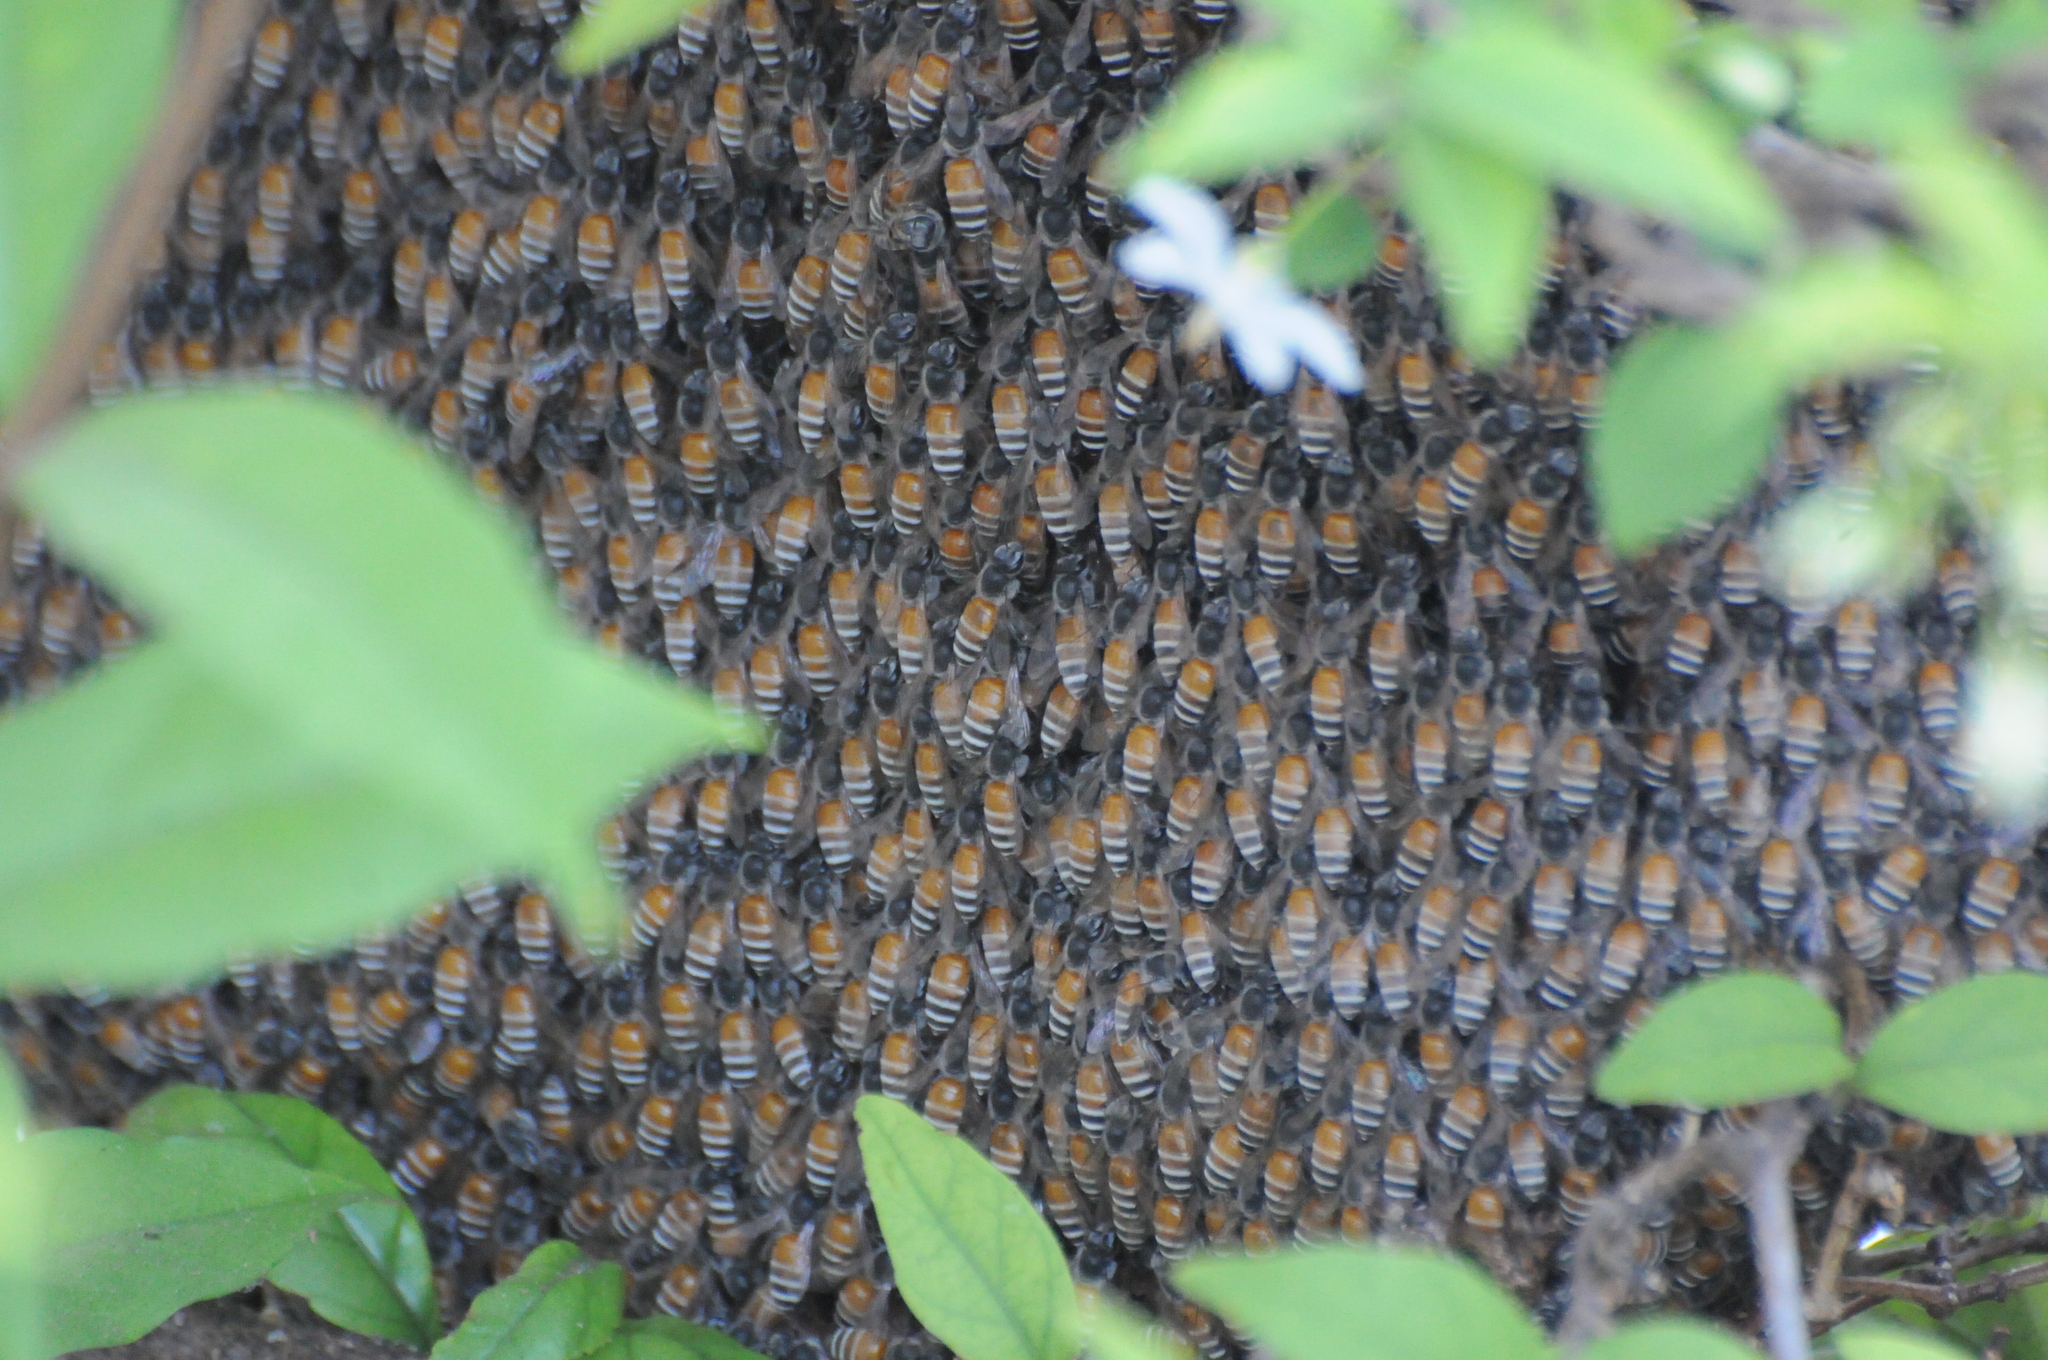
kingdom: Animalia
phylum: Arthropoda
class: Insecta
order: Hymenoptera
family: Apidae
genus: Apis
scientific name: Apis florea
